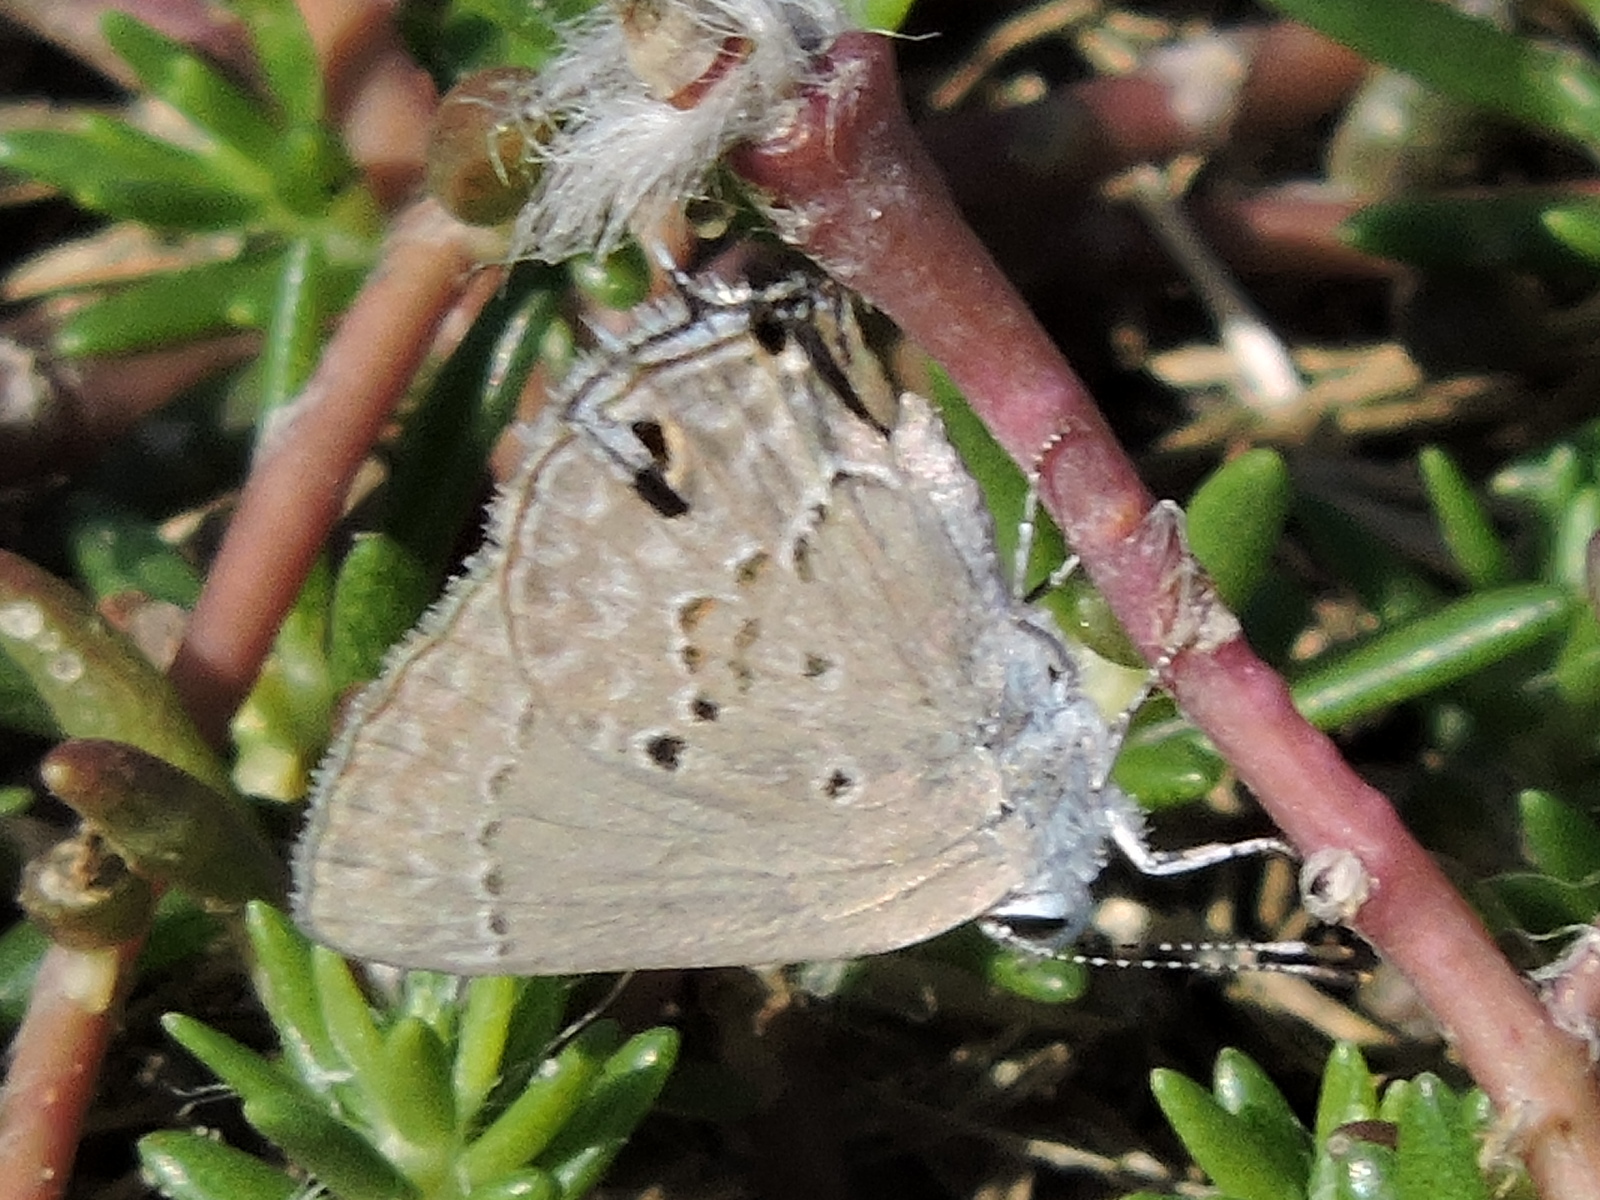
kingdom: Animalia
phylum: Arthropoda
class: Insecta
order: Lepidoptera
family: Lycaenidae
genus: Callicista
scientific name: Callicista columella
